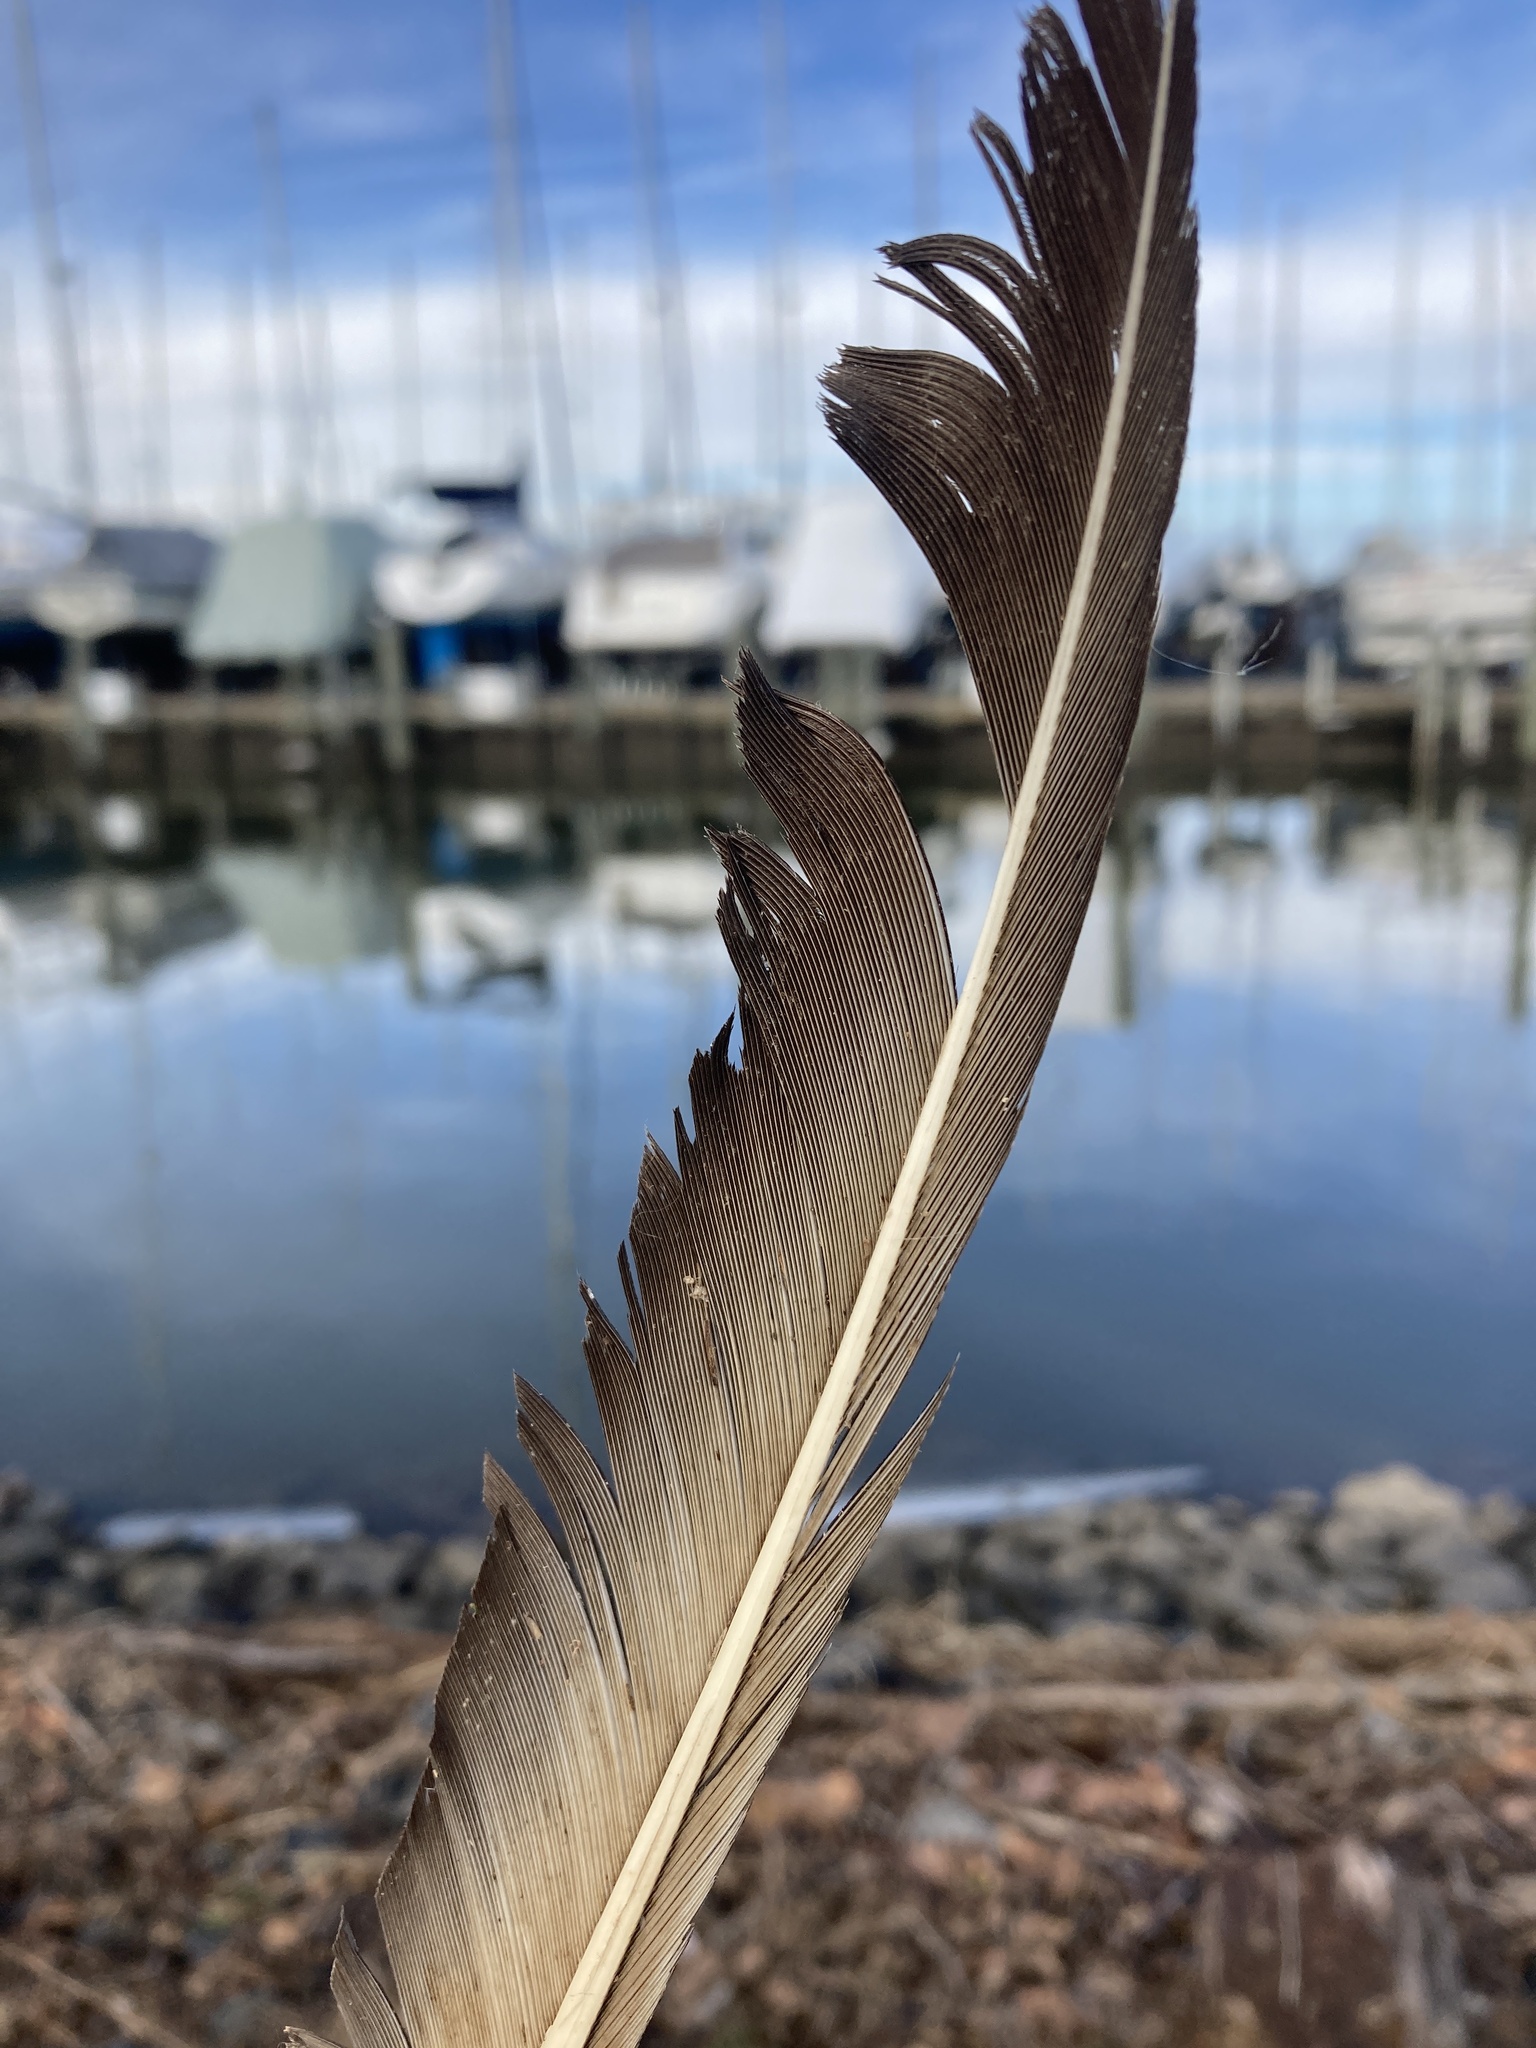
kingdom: Animalia
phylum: Chordata
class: Aves
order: Accipitriformes
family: Cathartidae
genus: Coragyps
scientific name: Coragyps atratus
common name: Black vulture
